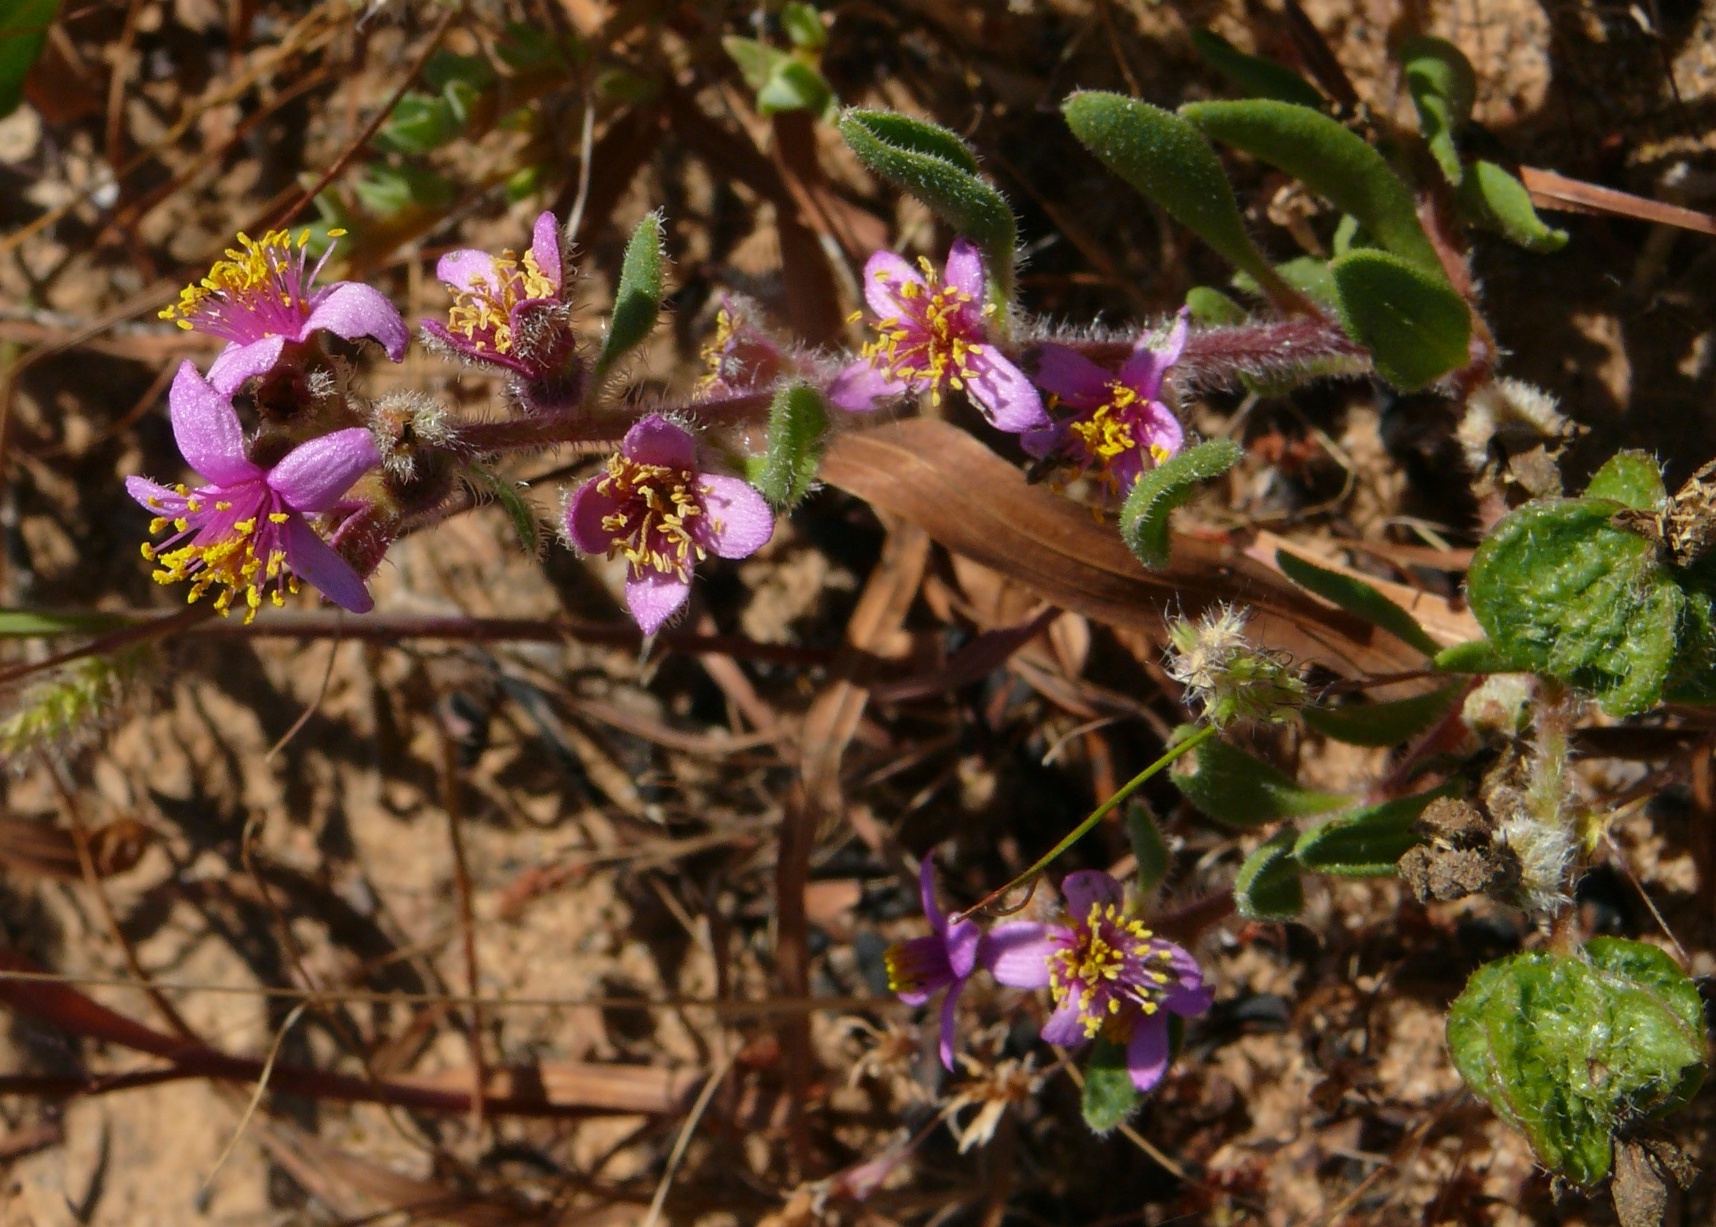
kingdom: Plantae
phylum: Tracheophyta
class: Magnoliopsida
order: Caryophyllales
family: Aizoaceae
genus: Tetragonia
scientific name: Tetragonia rosea
